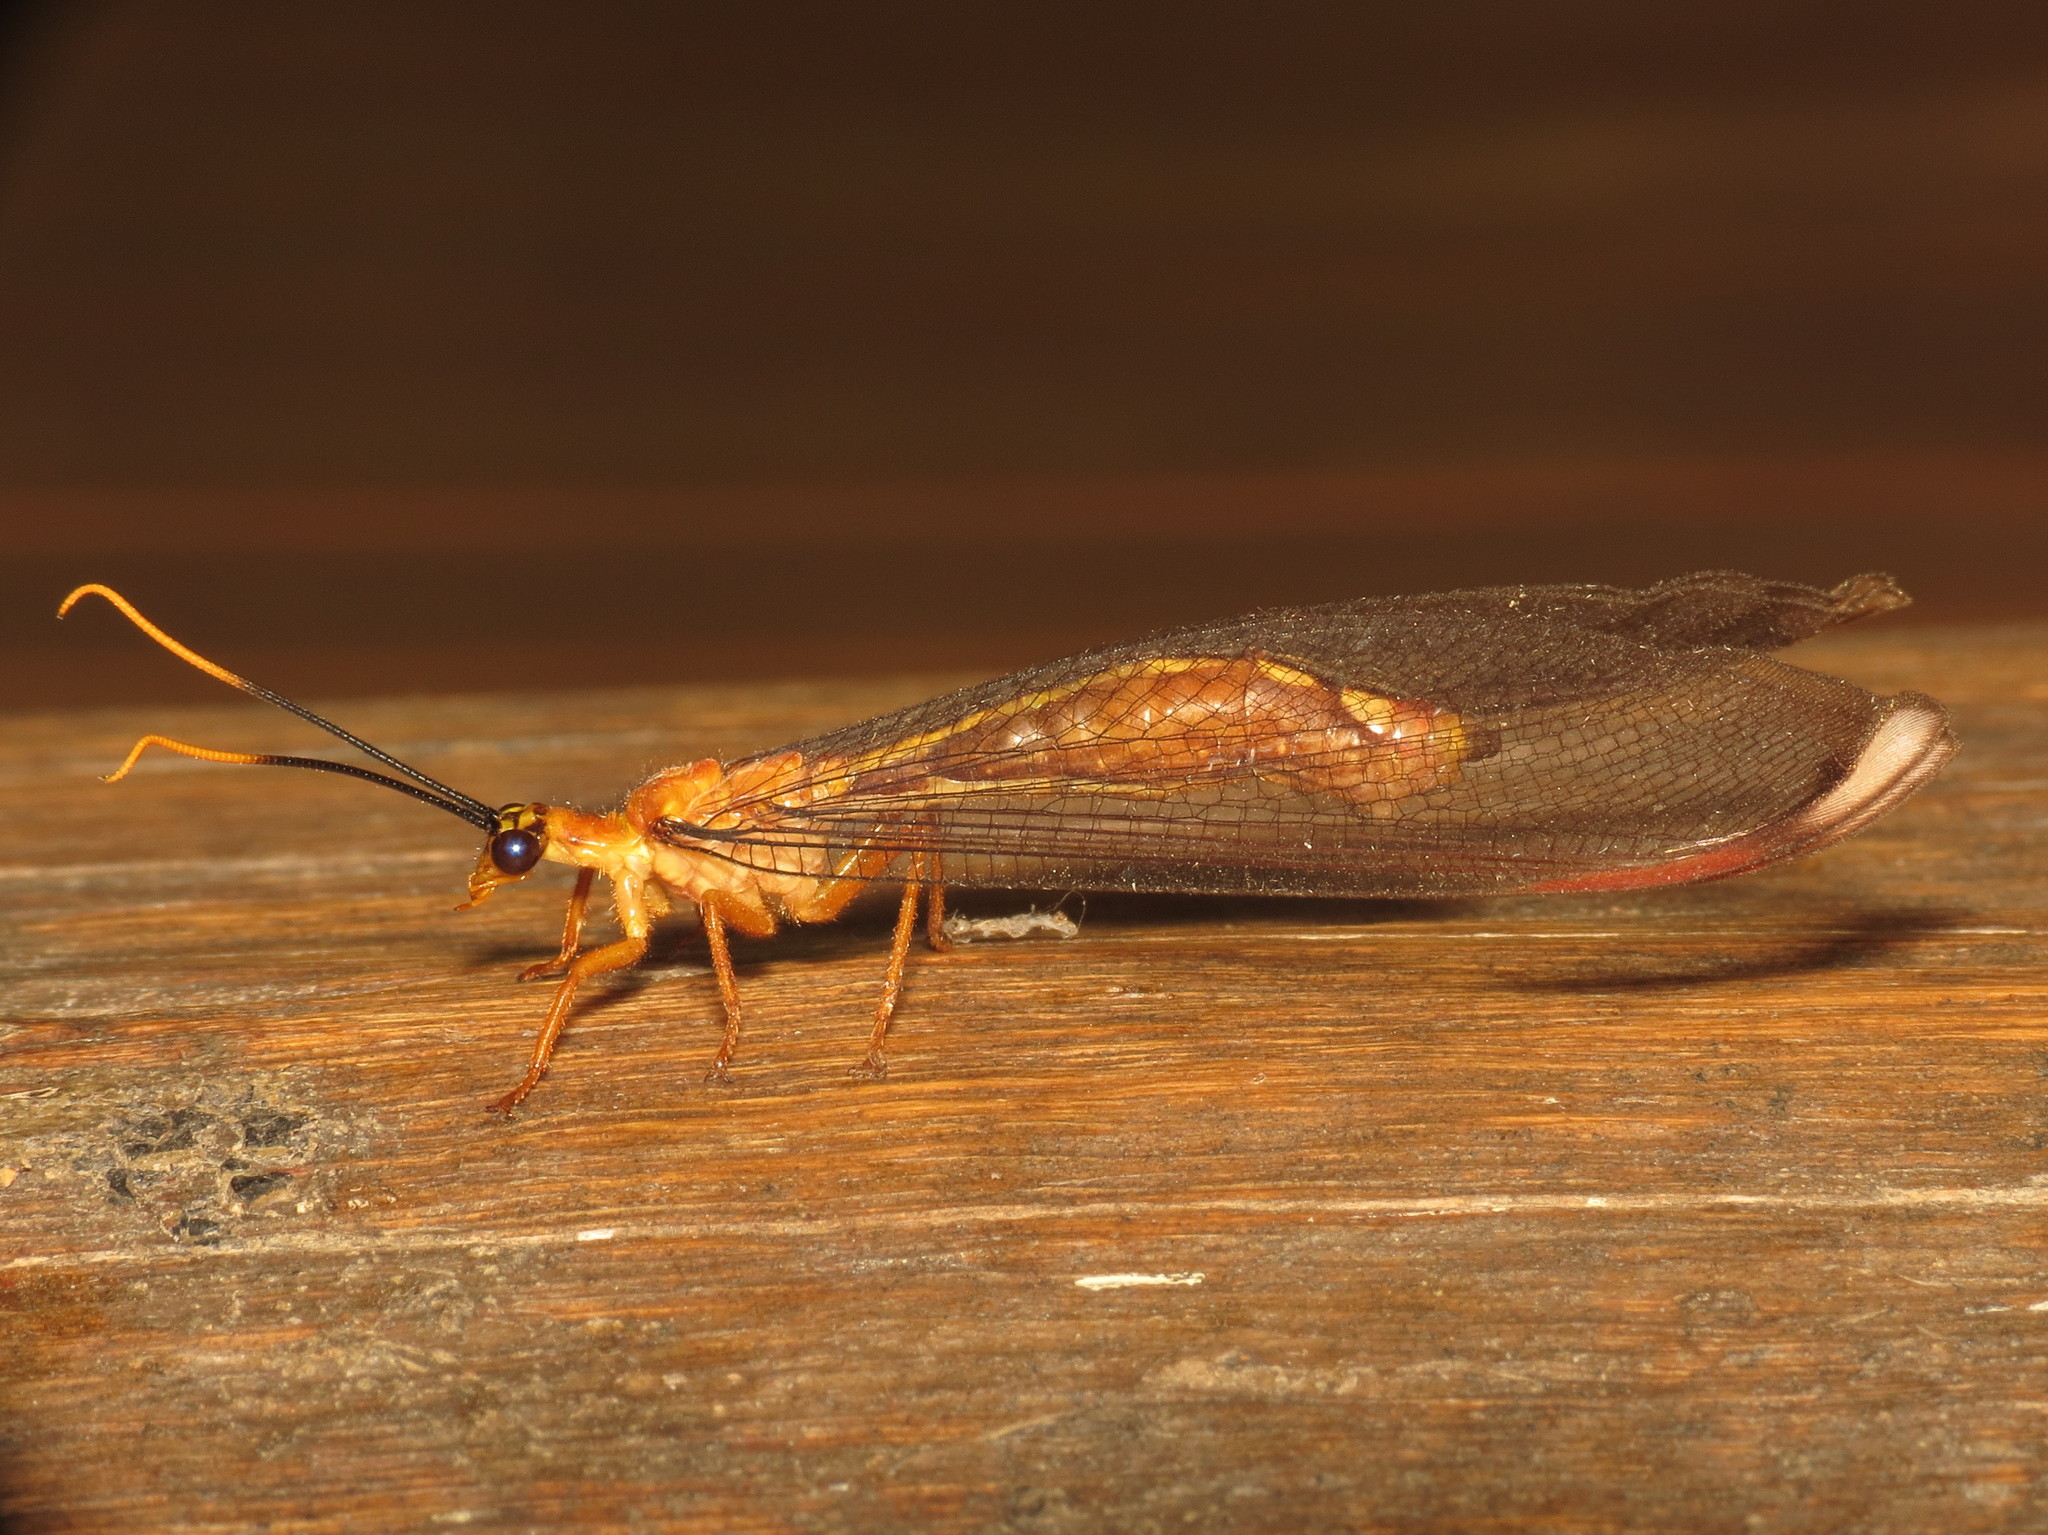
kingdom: Animalia
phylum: Arthropoda
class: Insecta
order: Neuroptera
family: Nymphidae
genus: Nymphes
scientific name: Nymphes myrmeleonoides
